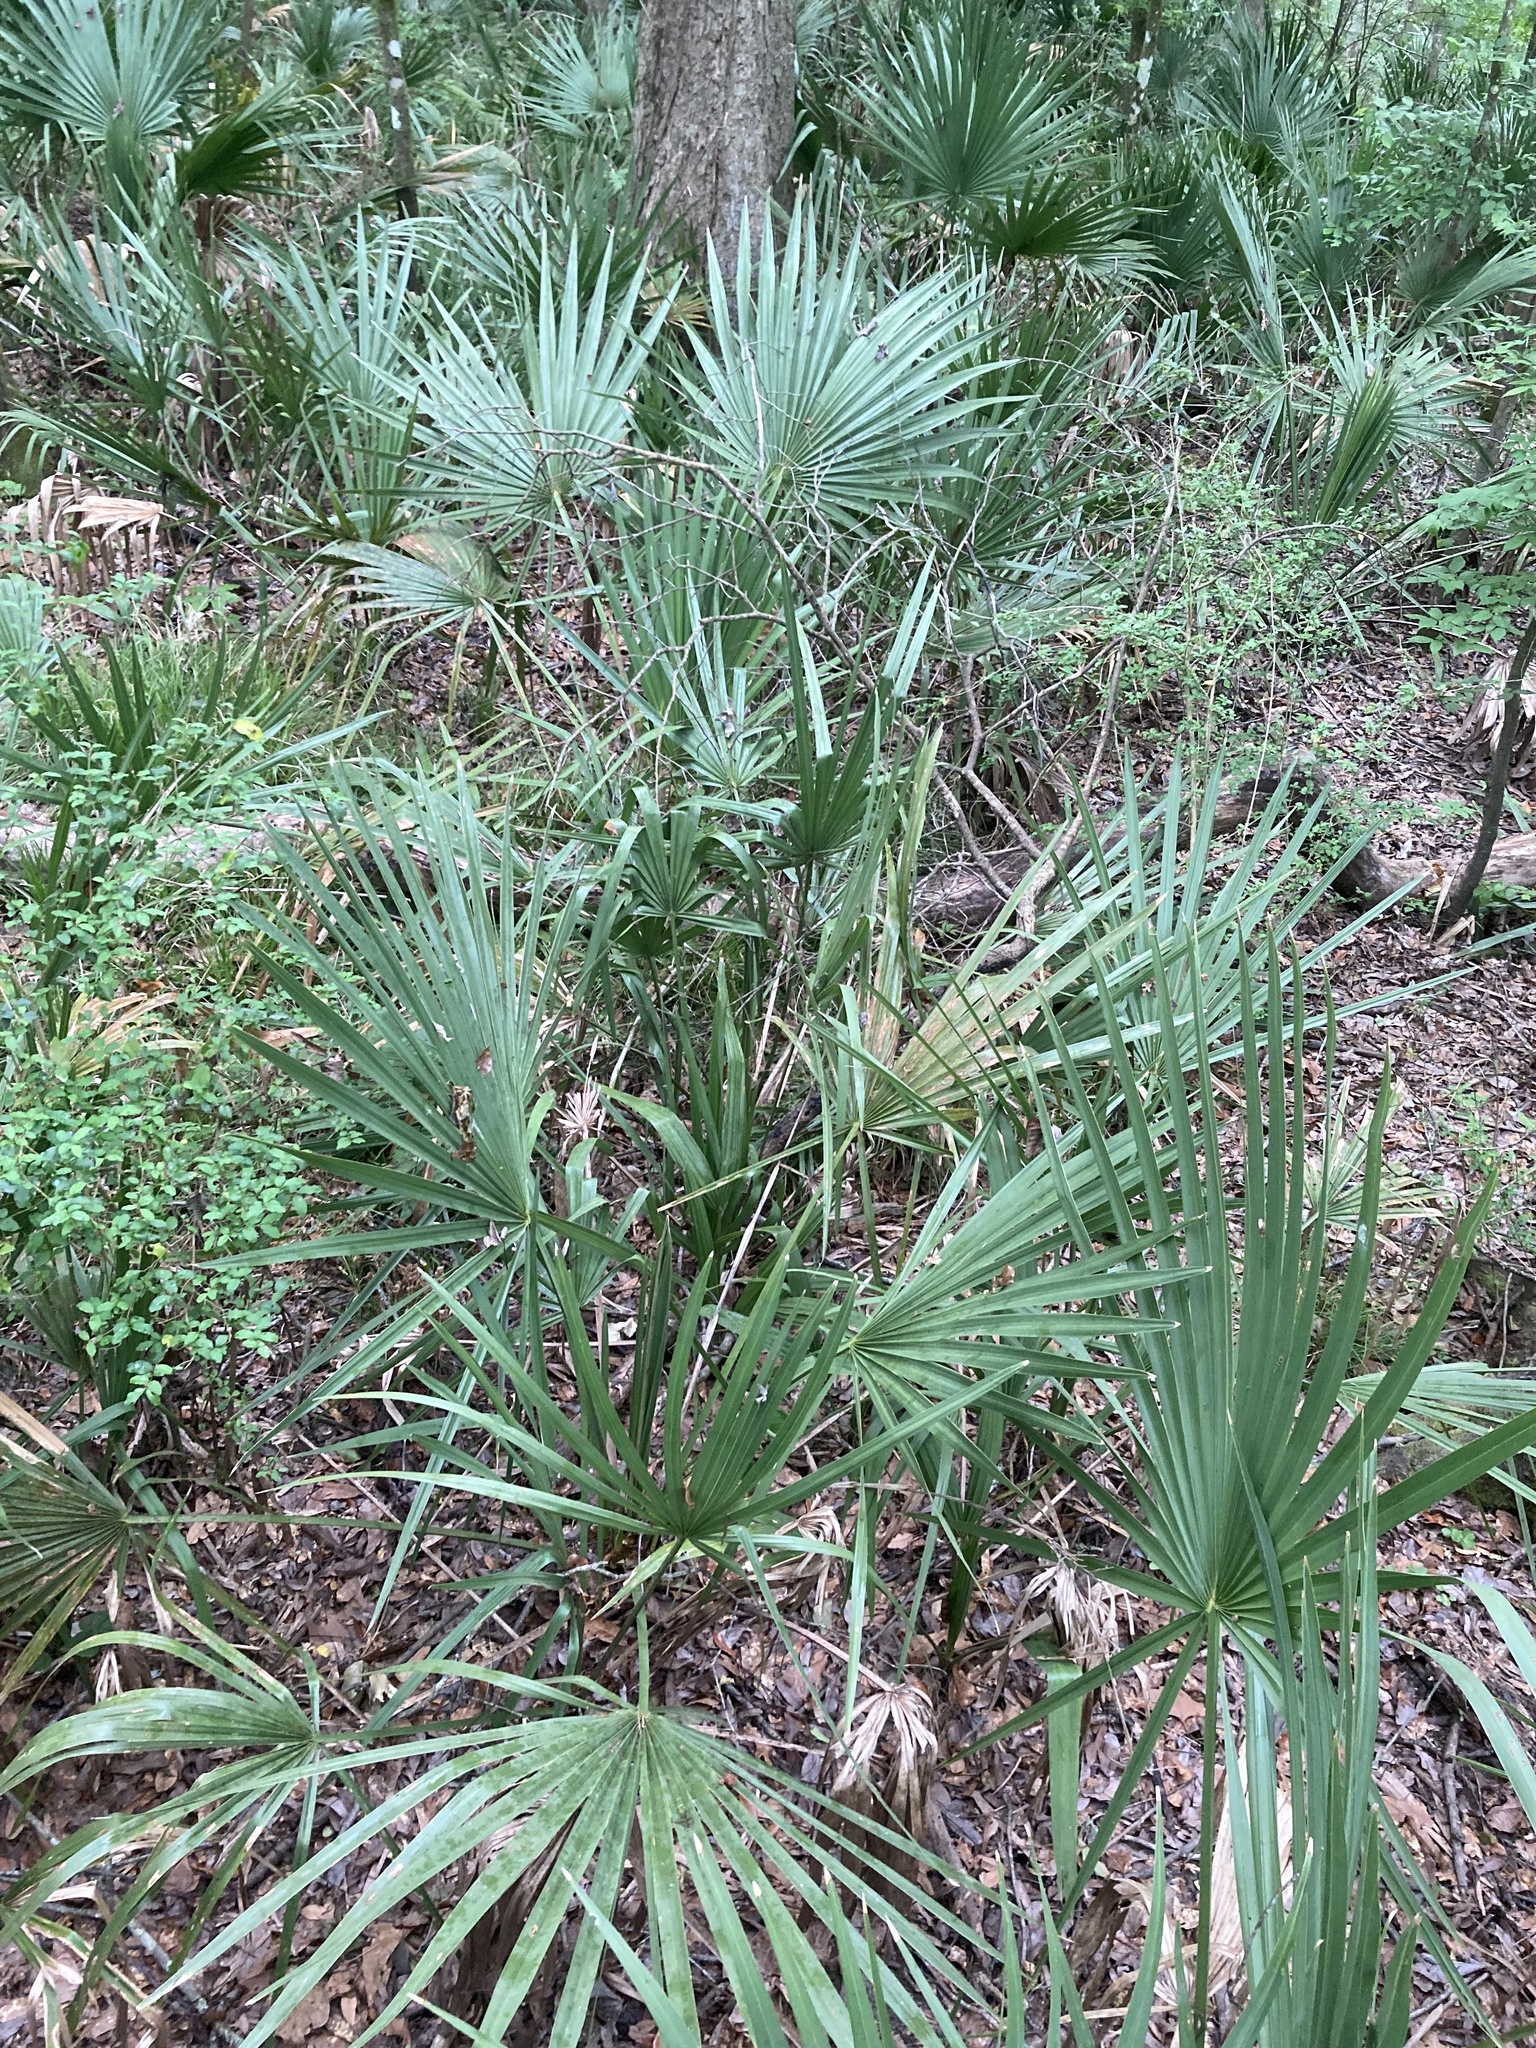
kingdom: Plantae
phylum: Tracheophyta
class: Liliopsida
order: Arecales
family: Arecaceae
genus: Sabal
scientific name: Sabal minor
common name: Dwarf palmetto
